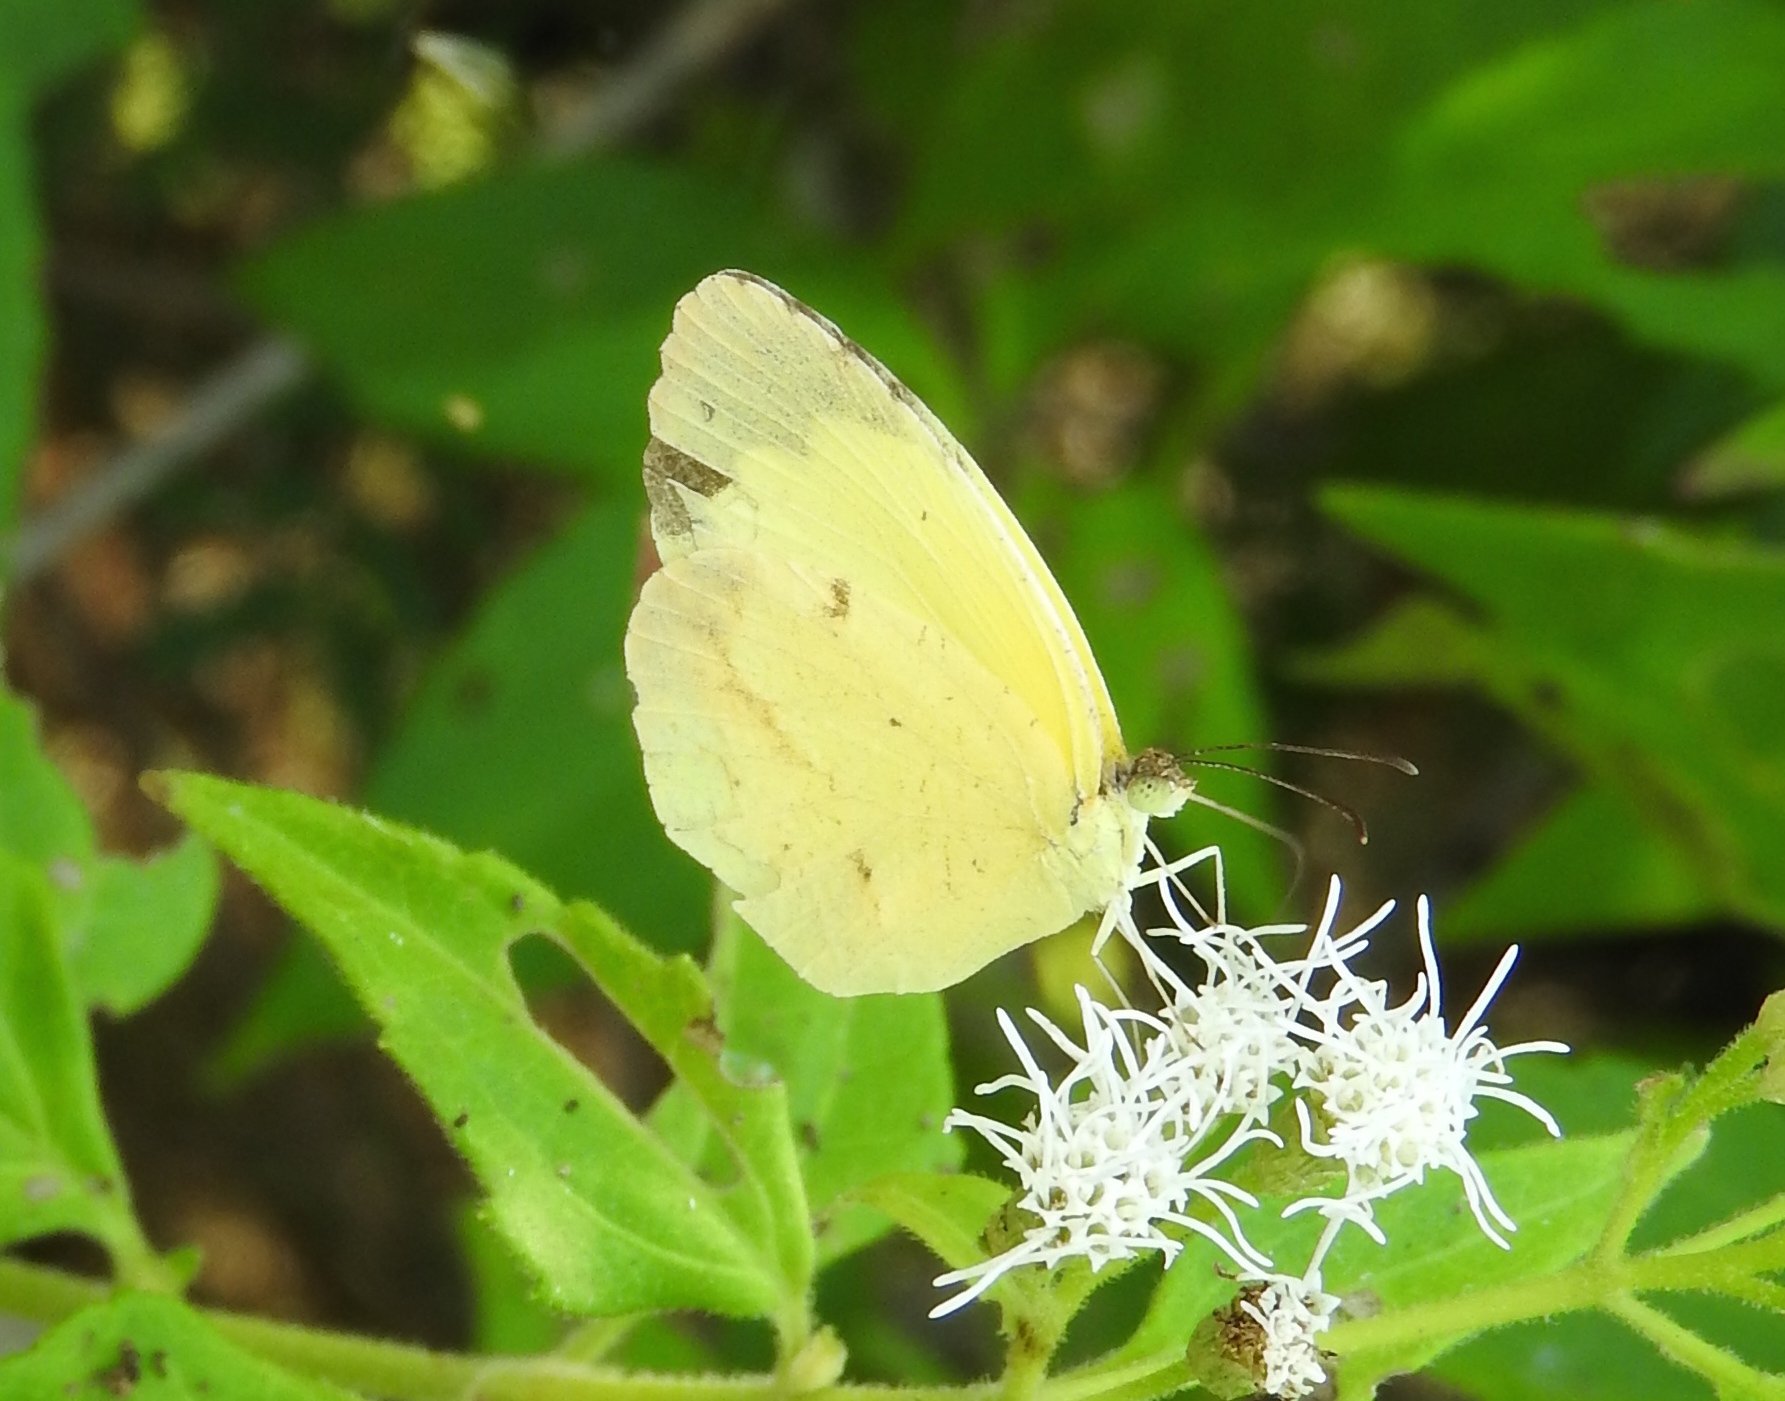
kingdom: Animalia
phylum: Arthropoda
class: Insecta
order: Lepidoptera
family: Pieridae
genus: Abaeis
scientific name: Abaeis mexicana
